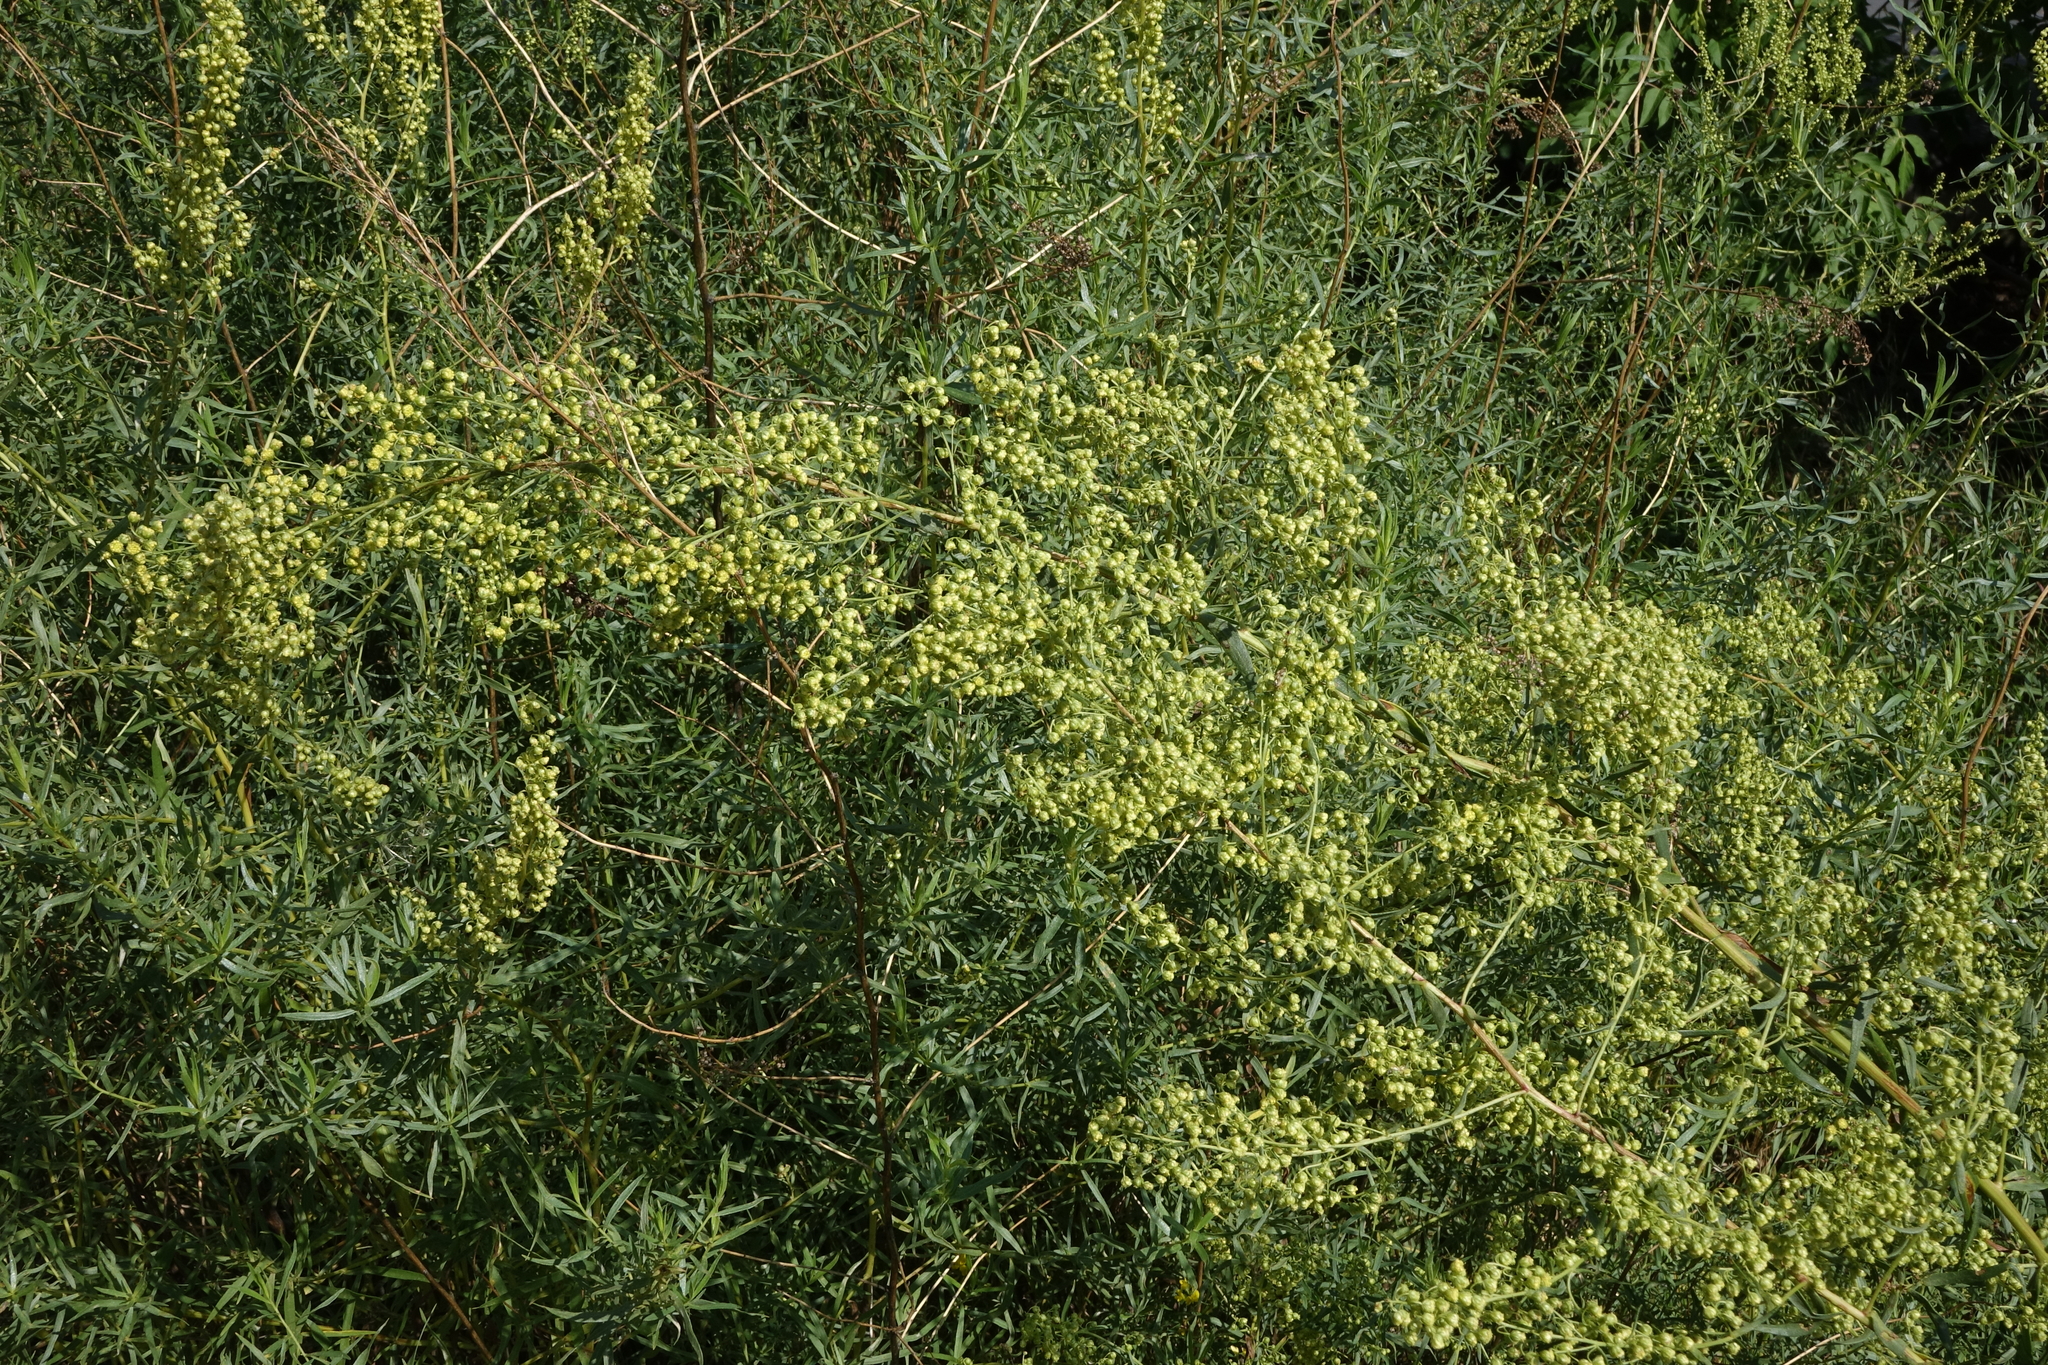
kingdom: Plantae
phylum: Tracheophyta
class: Magnoliopsida
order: Asterales
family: Asteraceae
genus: Artemisia
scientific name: Artemisia dracunculus
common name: Tarragon
